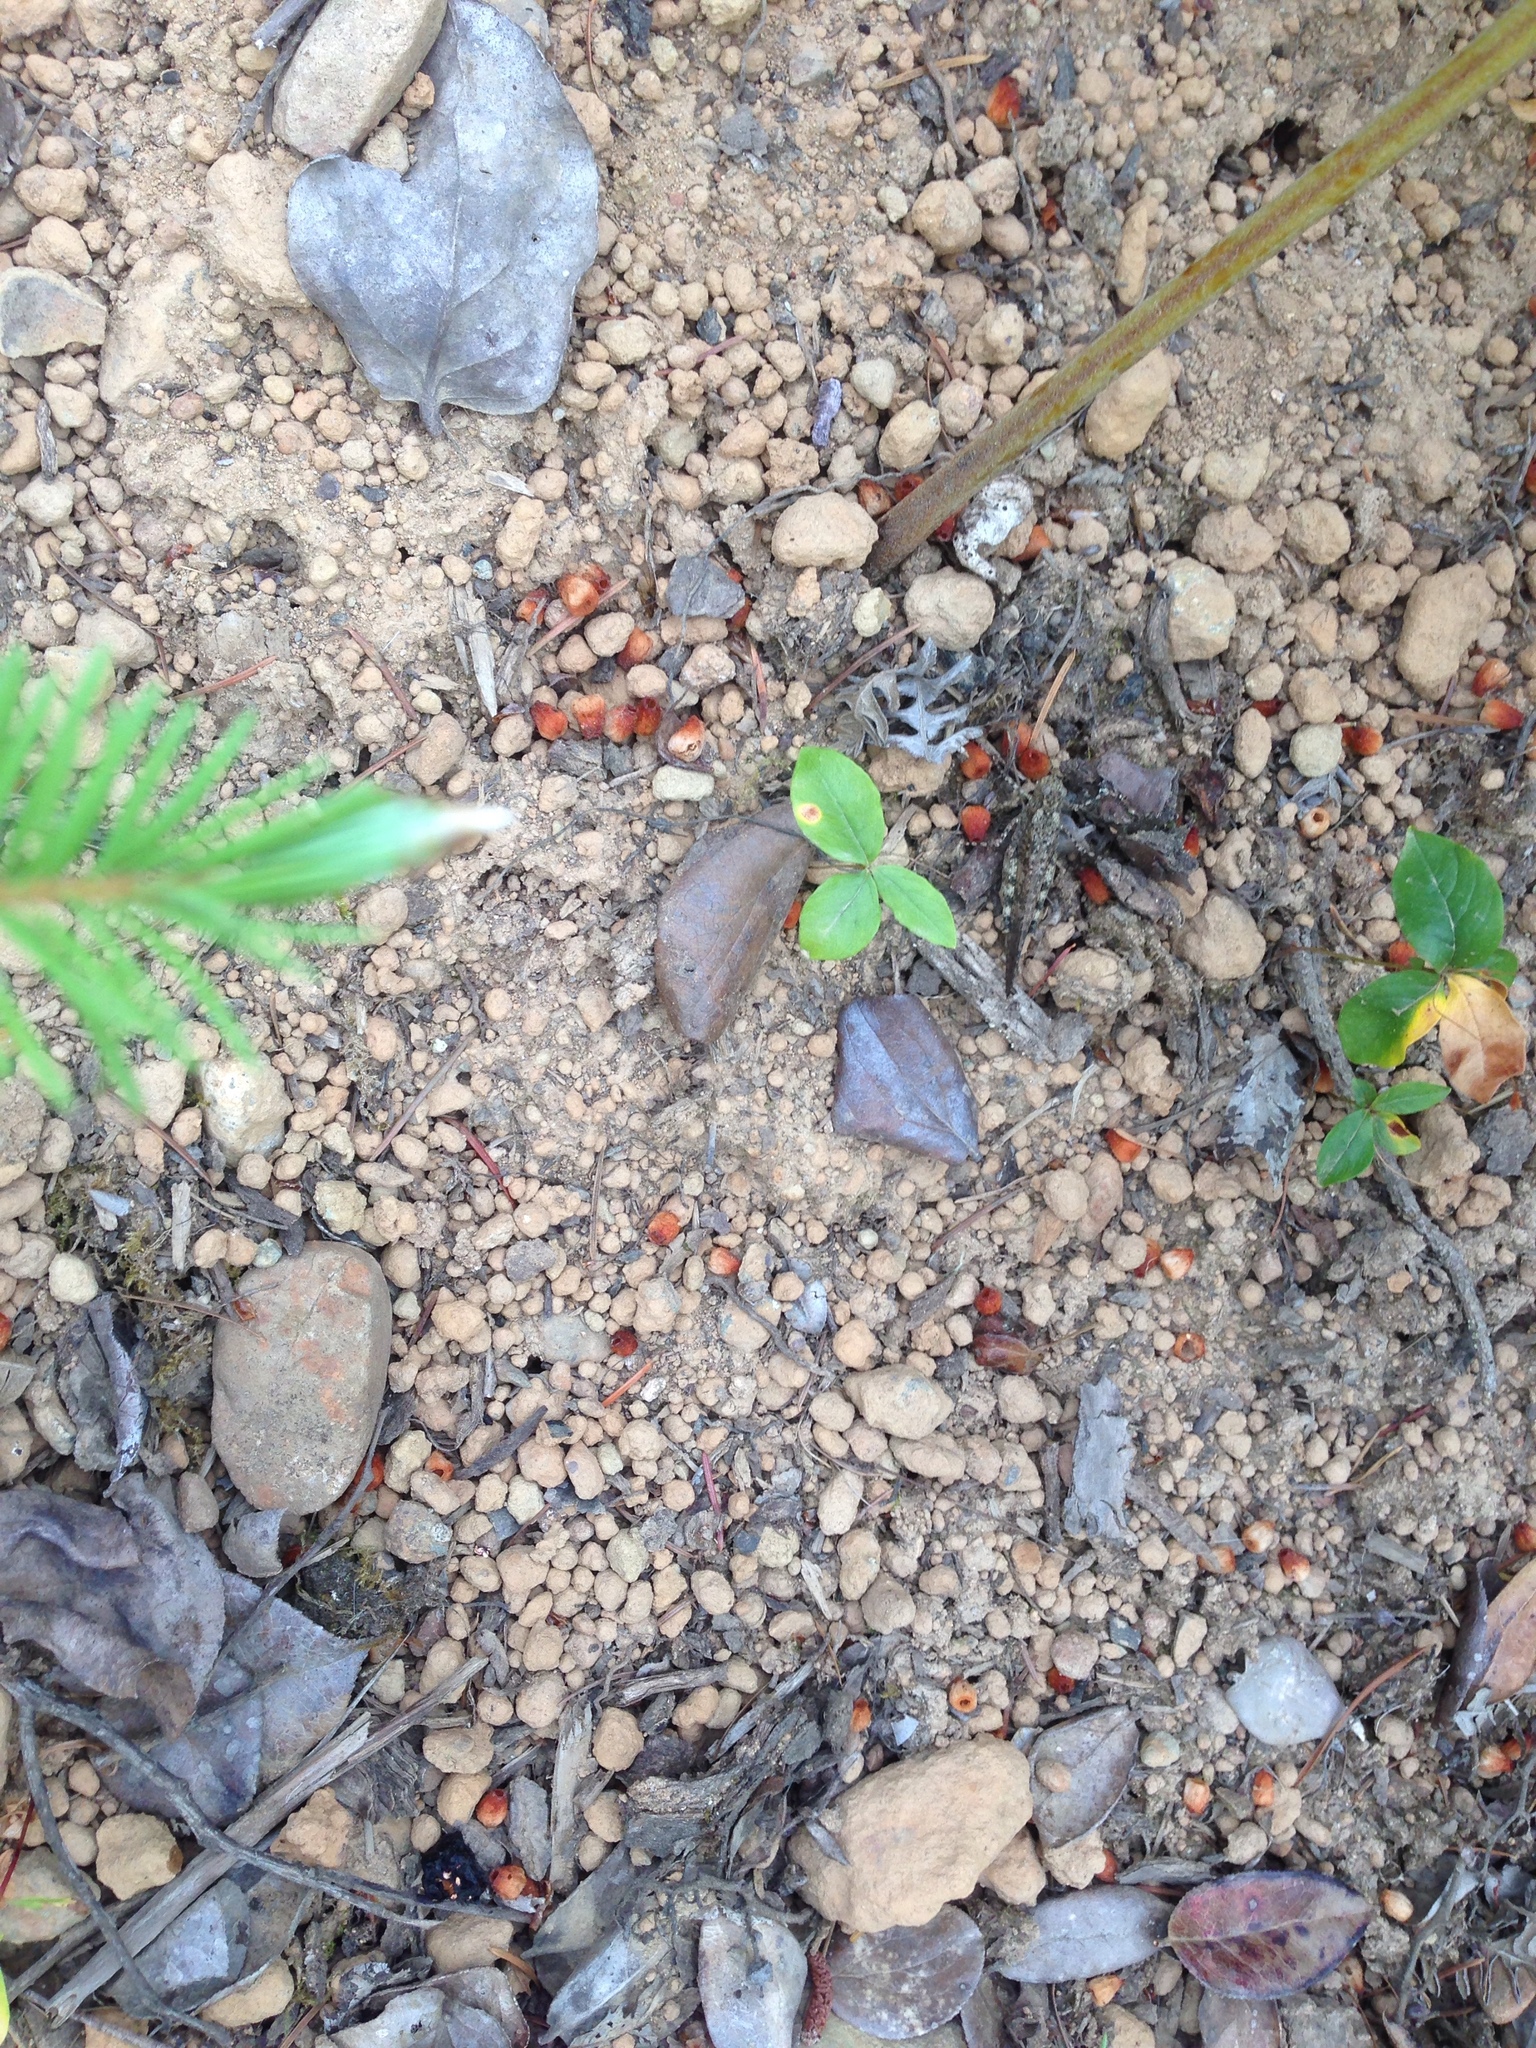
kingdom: Animalia
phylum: Arthropoda
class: Insecta
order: Orthoptera
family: Acrididae
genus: Trimerotropis
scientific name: Trimerotropis verruculata
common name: Crackling forest grasshopper
